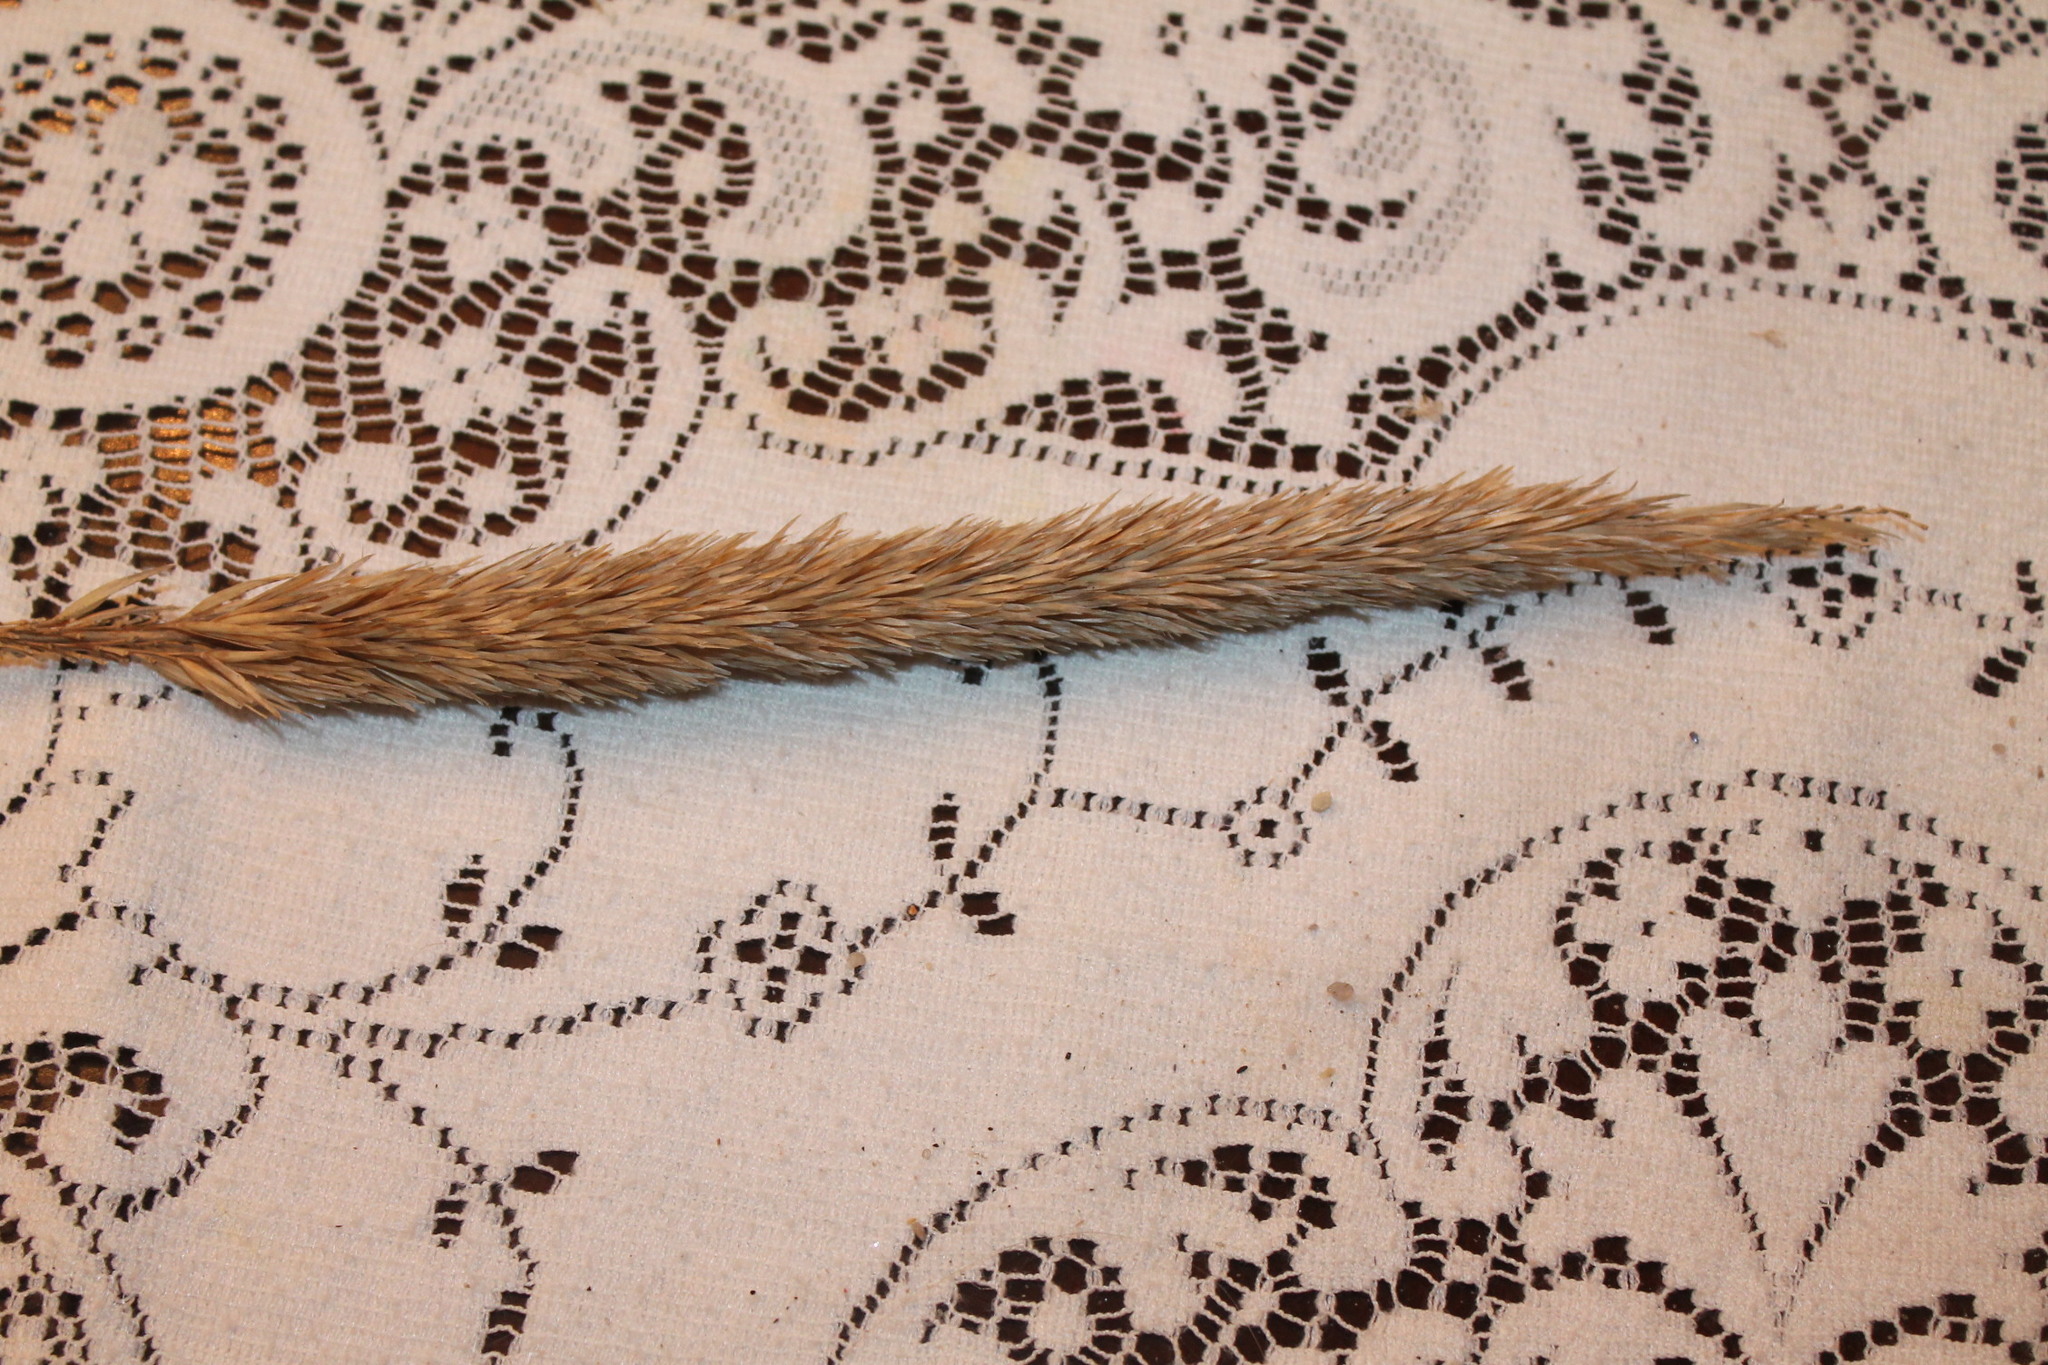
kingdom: Plantae
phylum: Tracheophyta
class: Liliopsida
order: Poales
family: Poaceae
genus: Calamagrostis
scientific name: Calamagrostis breviligulata
